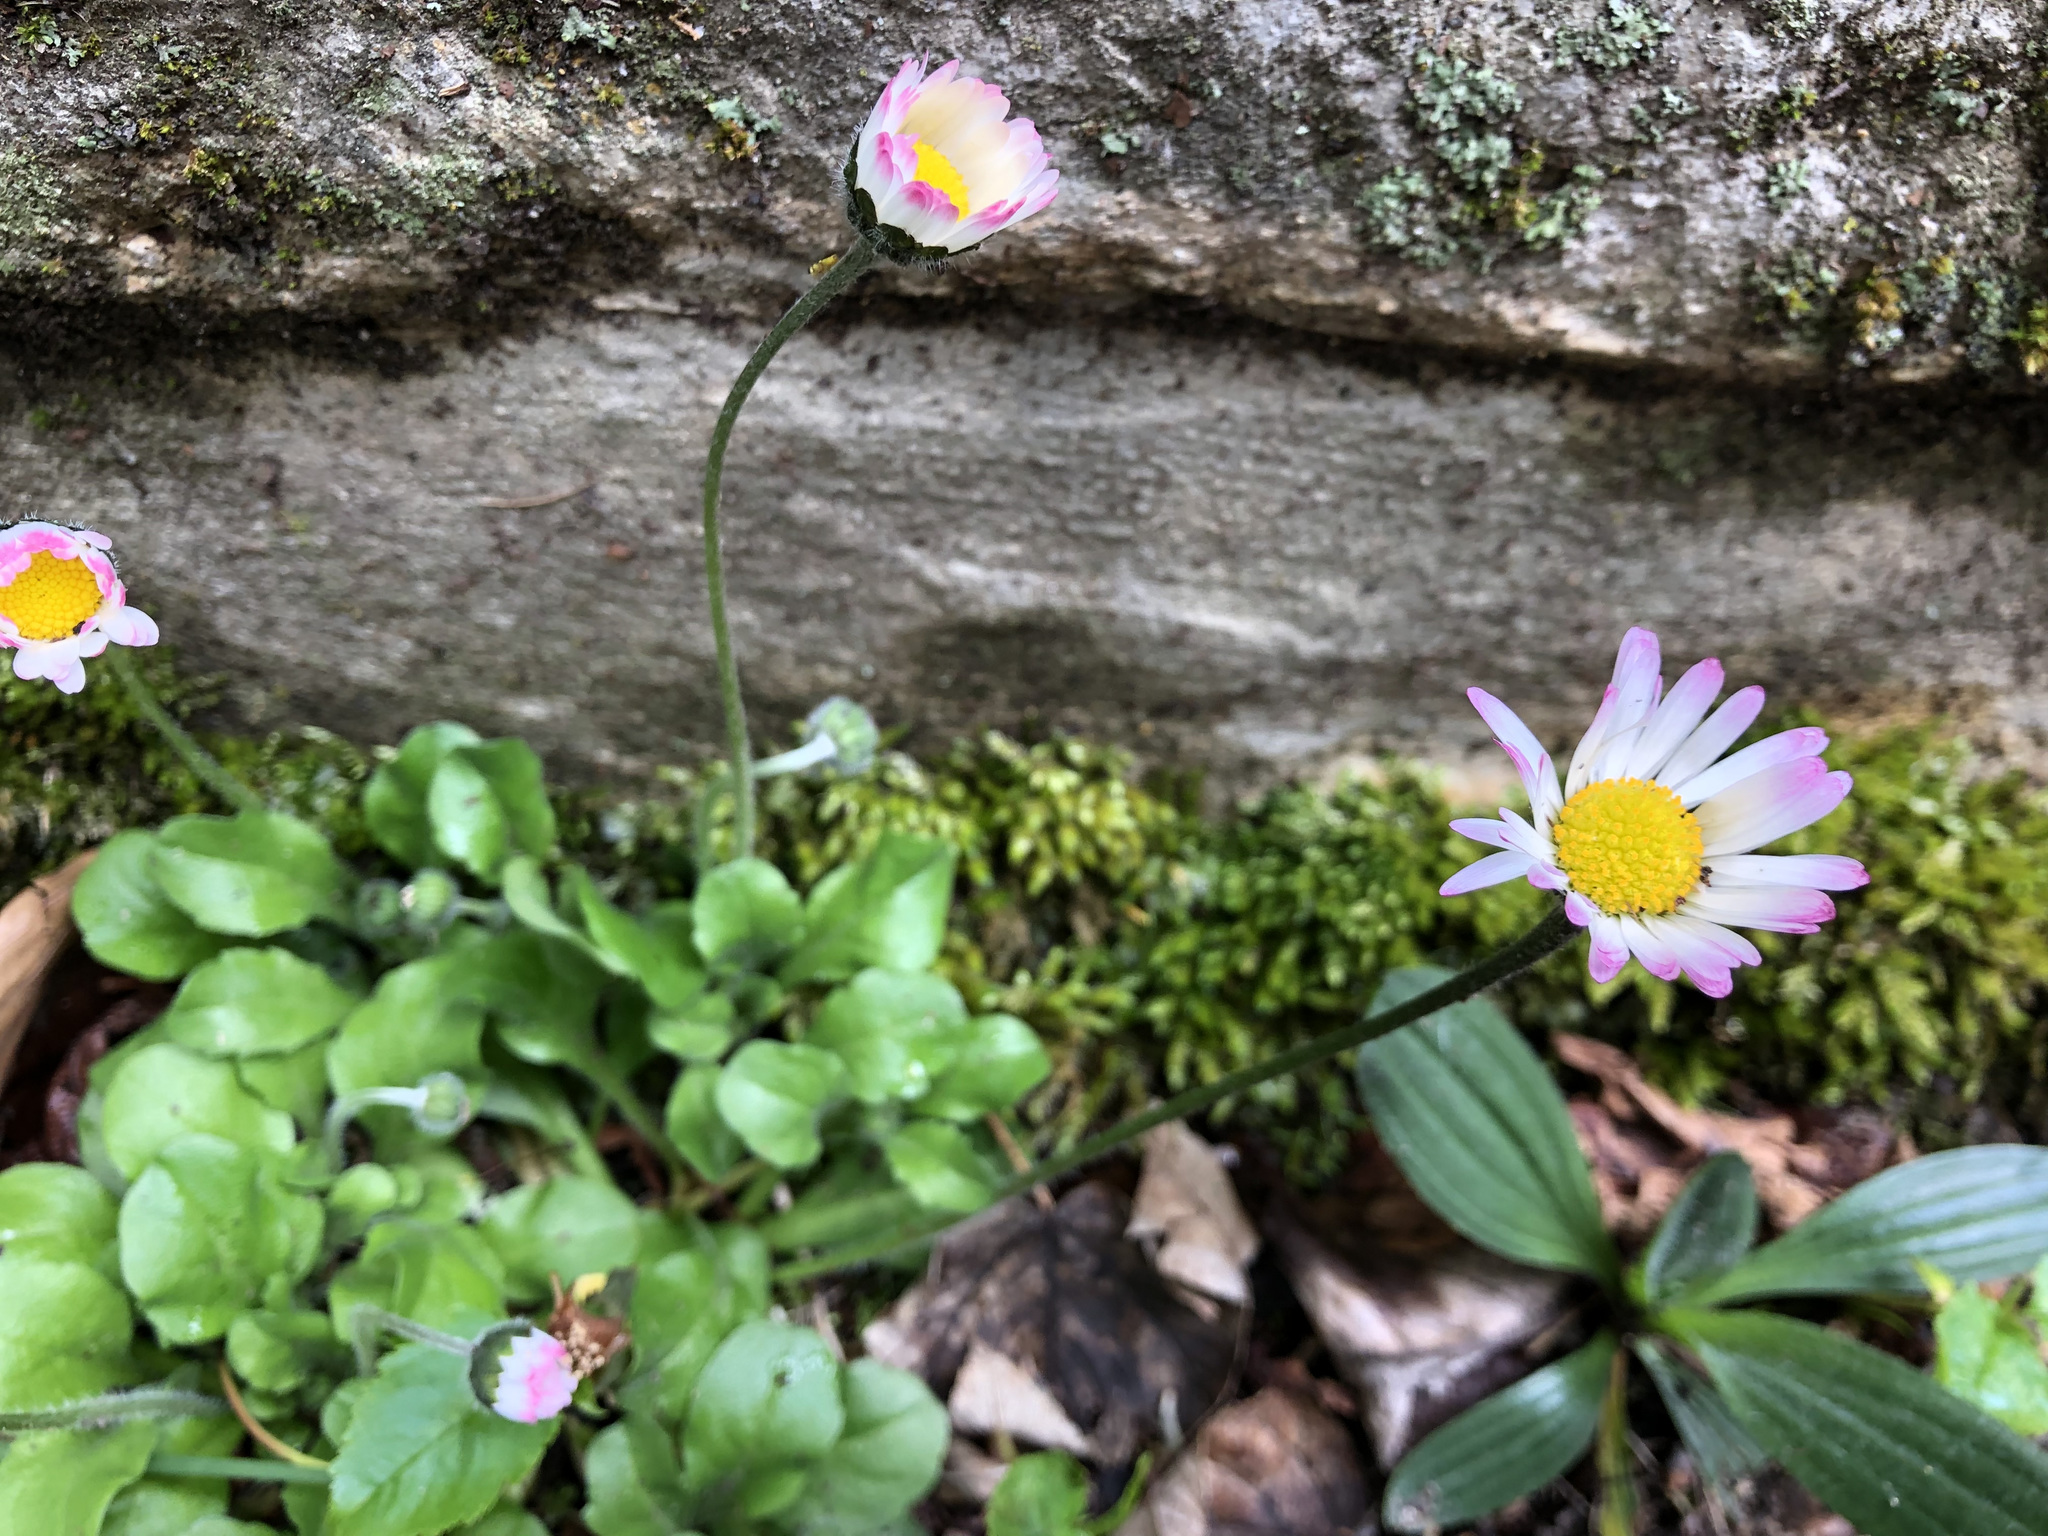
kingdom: Plantae
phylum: Tracheophyta
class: Magnoliopsida
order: Asterales
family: Asteraceae
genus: Bellis
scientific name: Bellis perennis
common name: Lawndaisy
